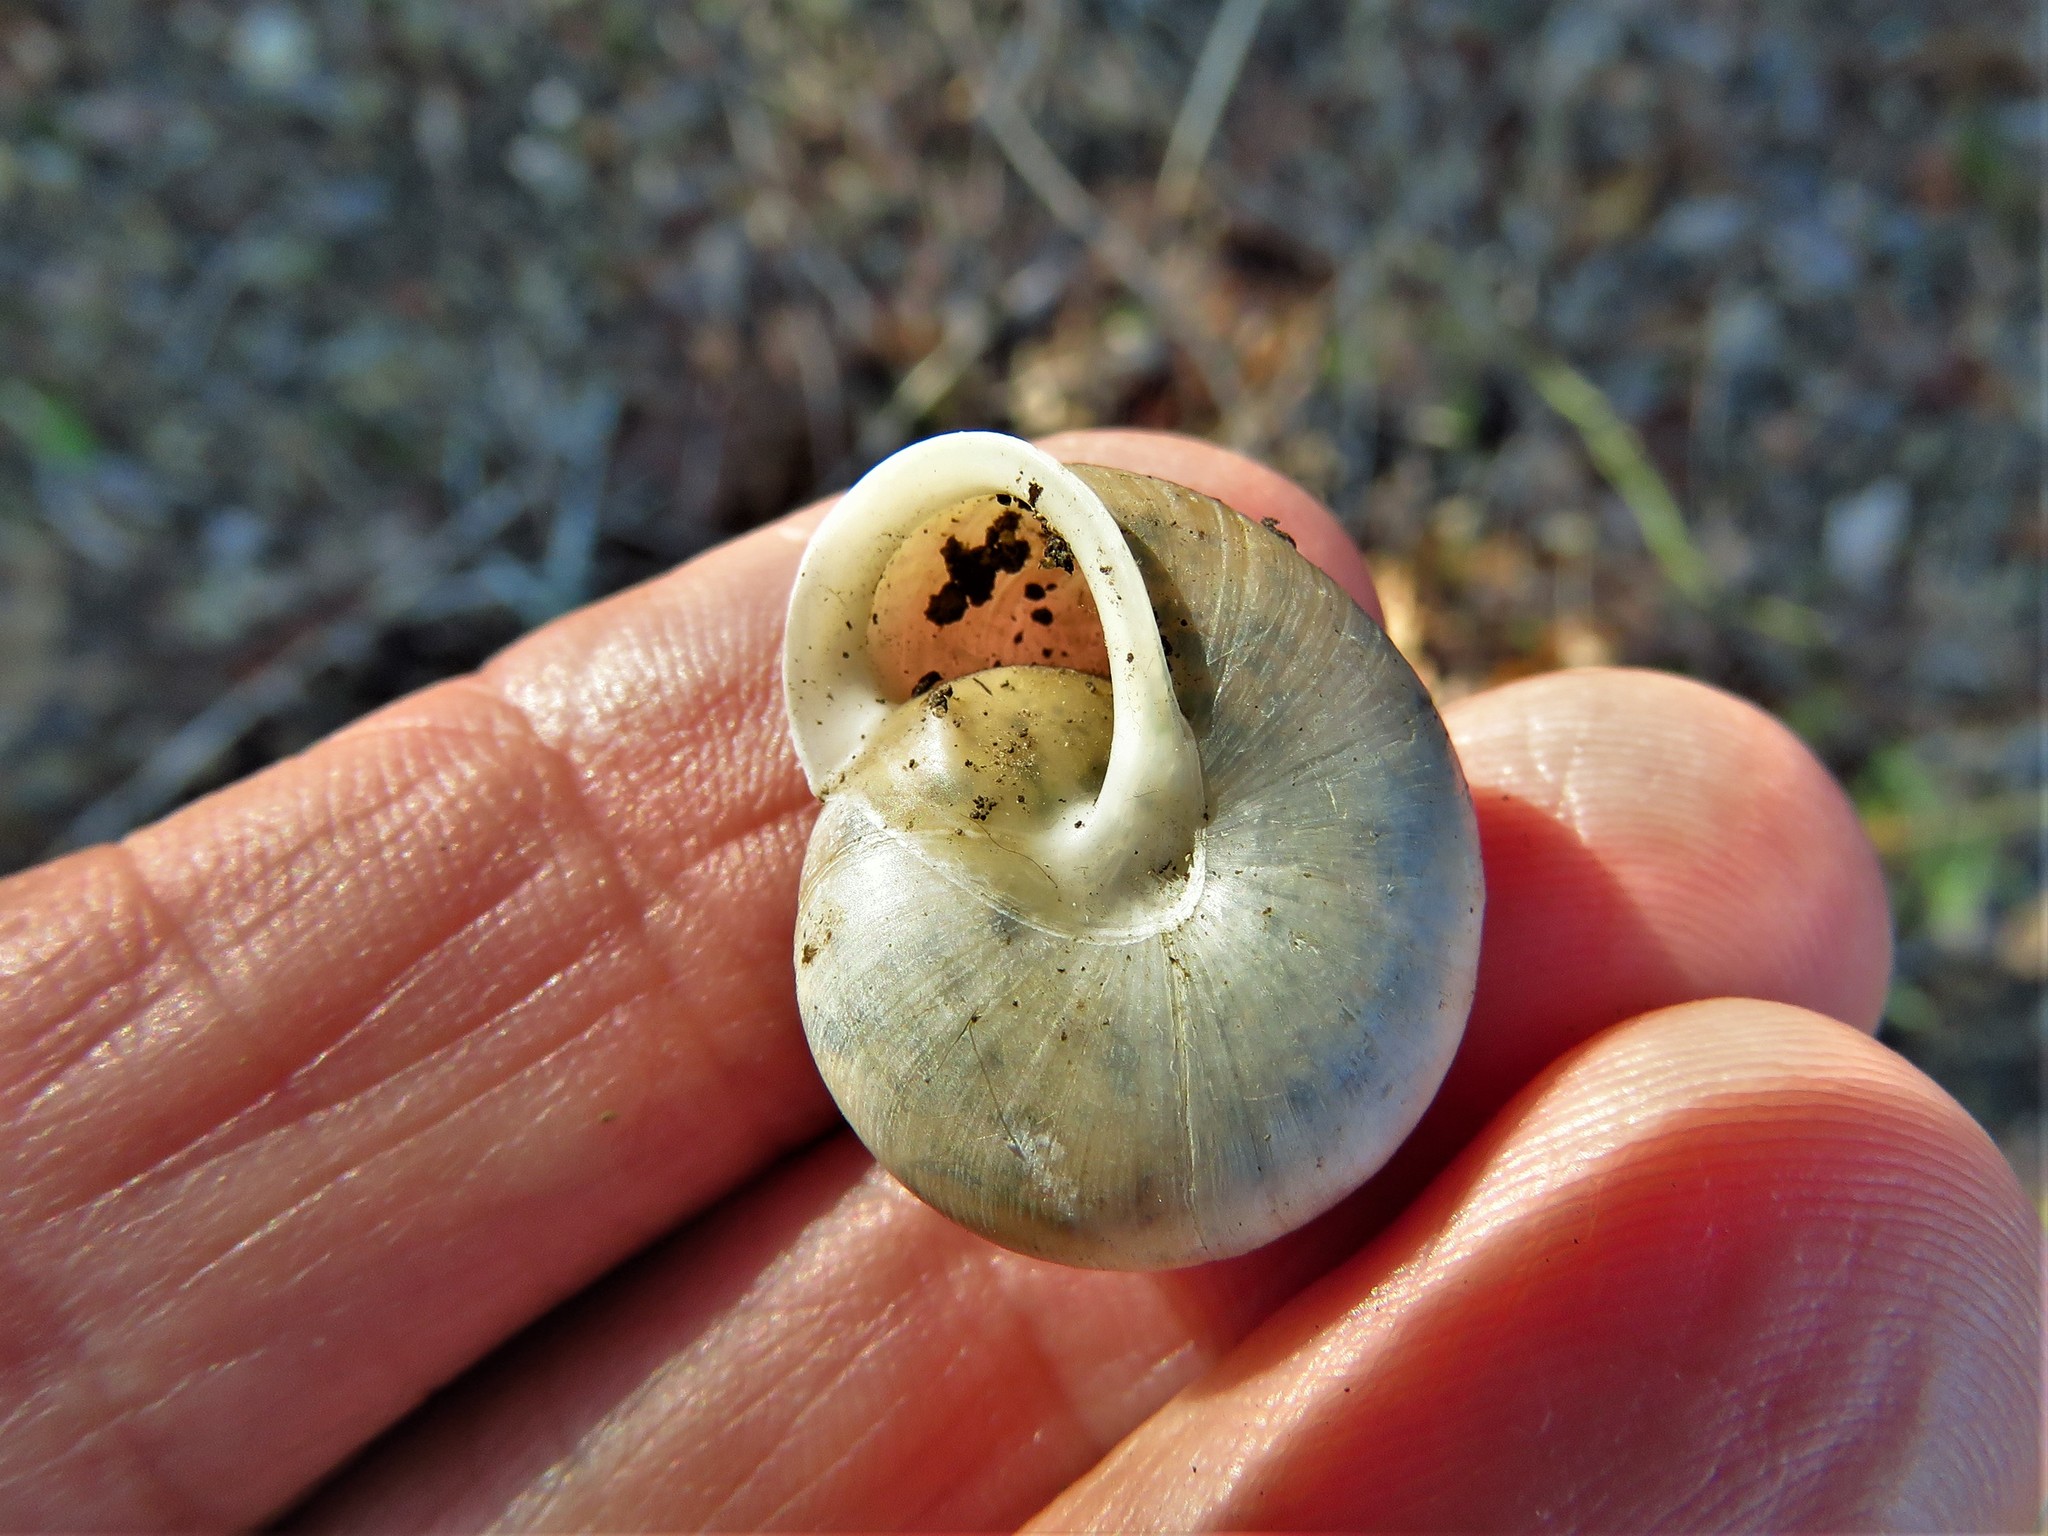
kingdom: Animalia
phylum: Mollusca
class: Gastropoda
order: Stylommatophora
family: Polygyridae
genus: Patera
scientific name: Patera roemeri
